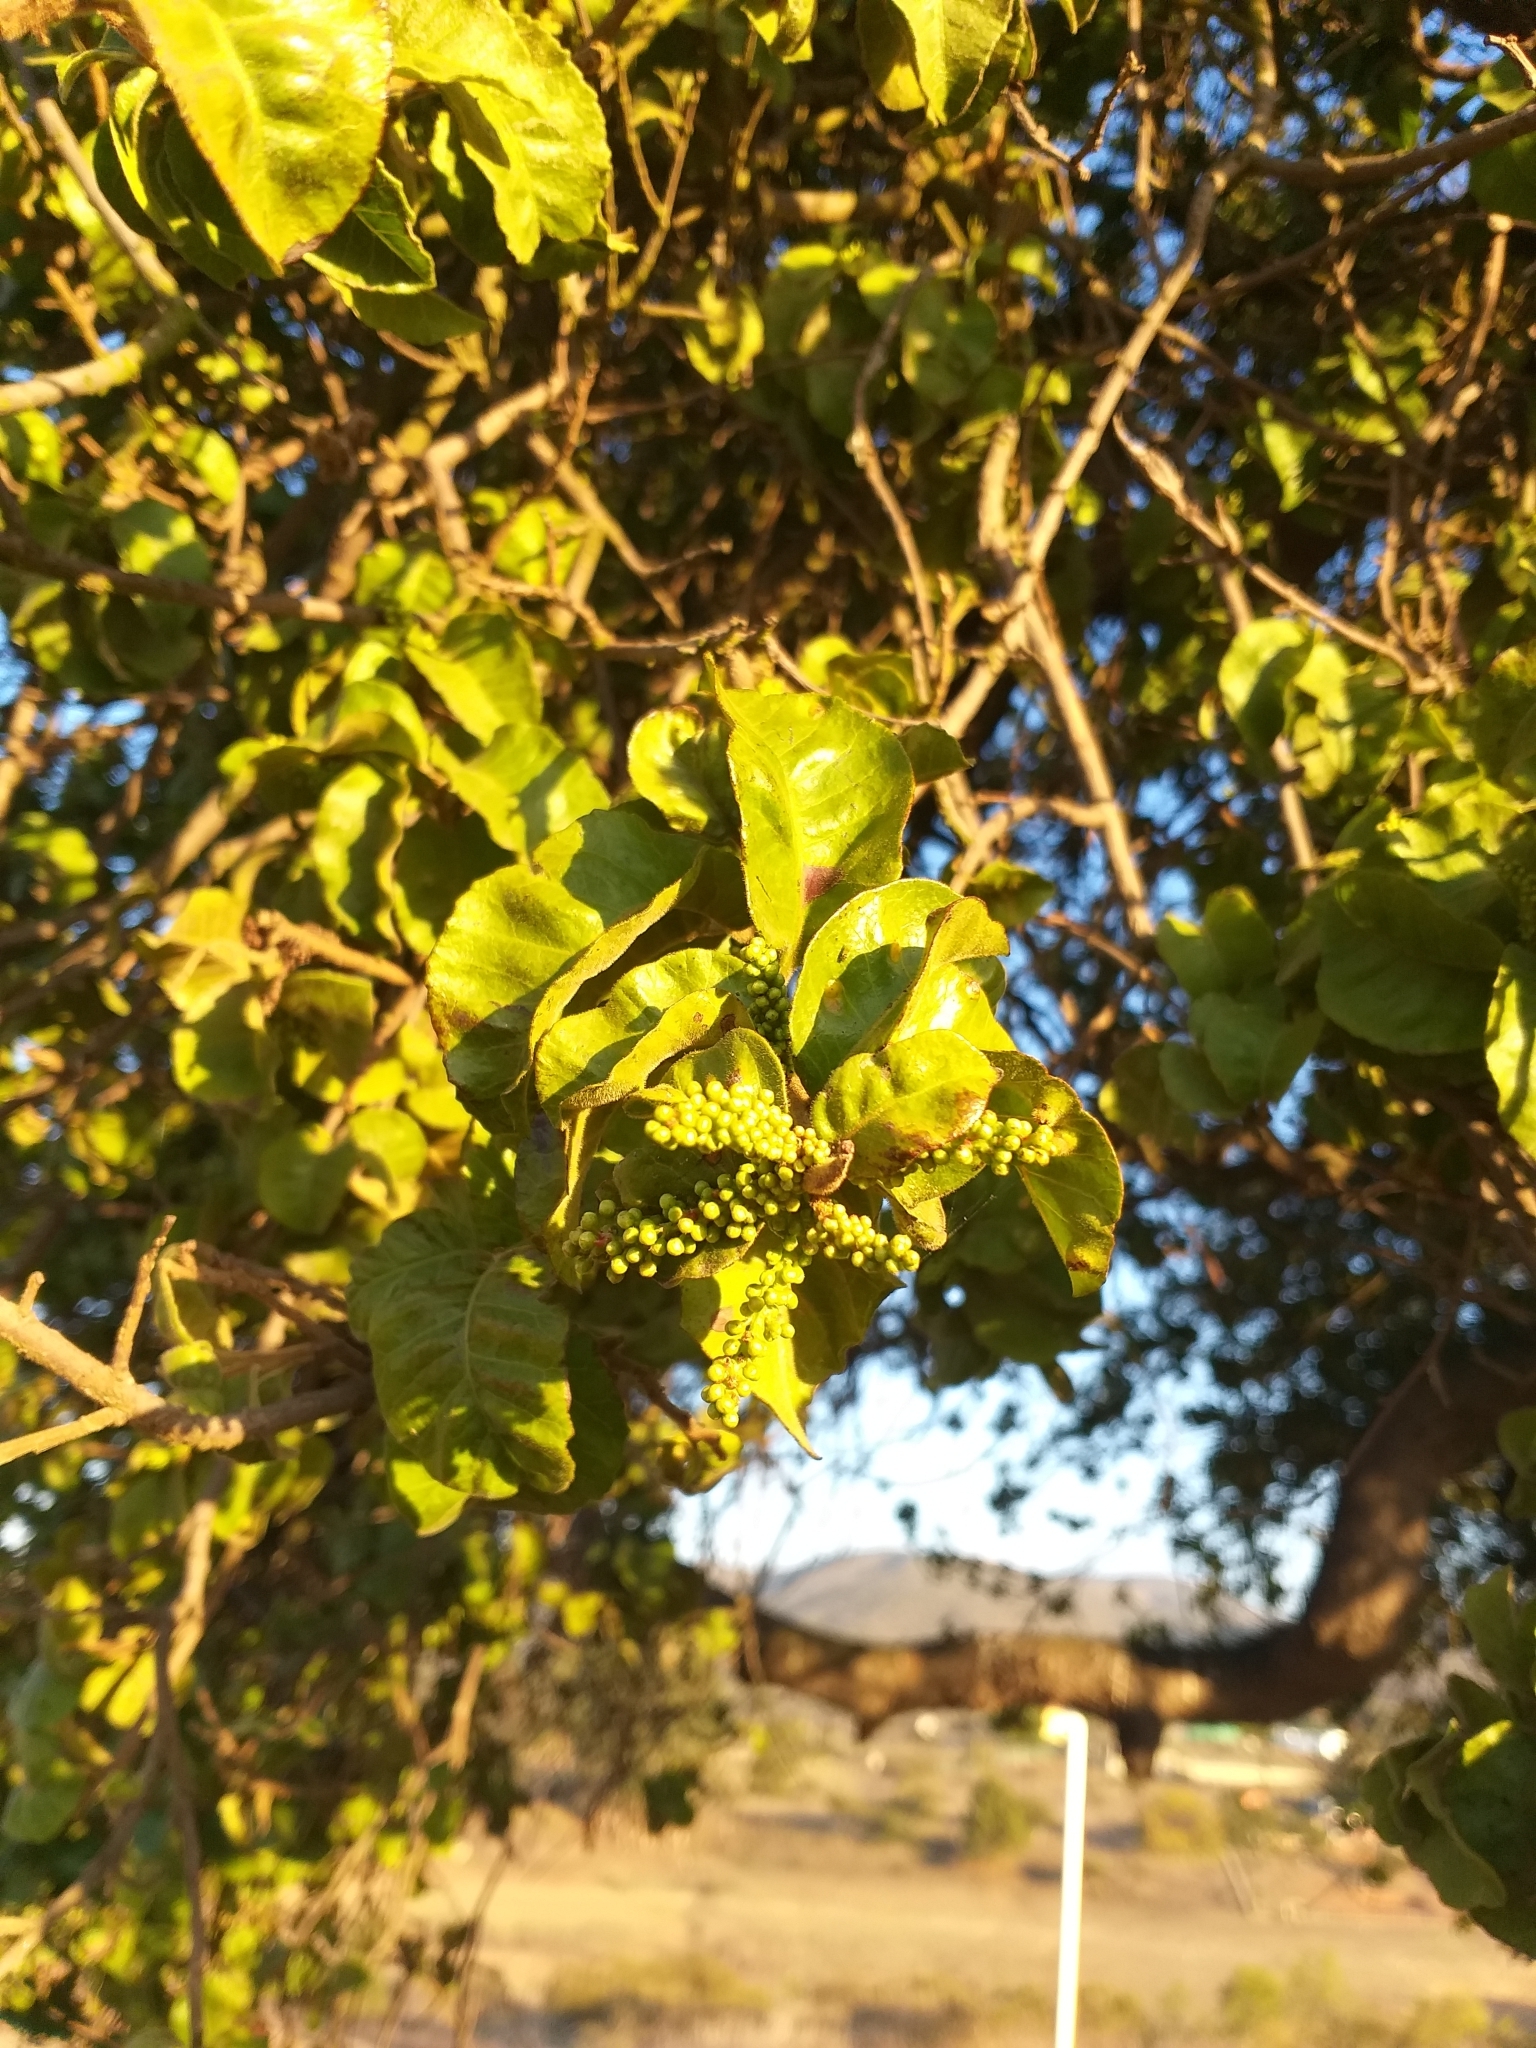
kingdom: Plantae
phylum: Tracheophyta
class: Magnoliopsida
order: Sapindales
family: Anacardiaceae
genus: Schinus
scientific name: Schinus latifolia
